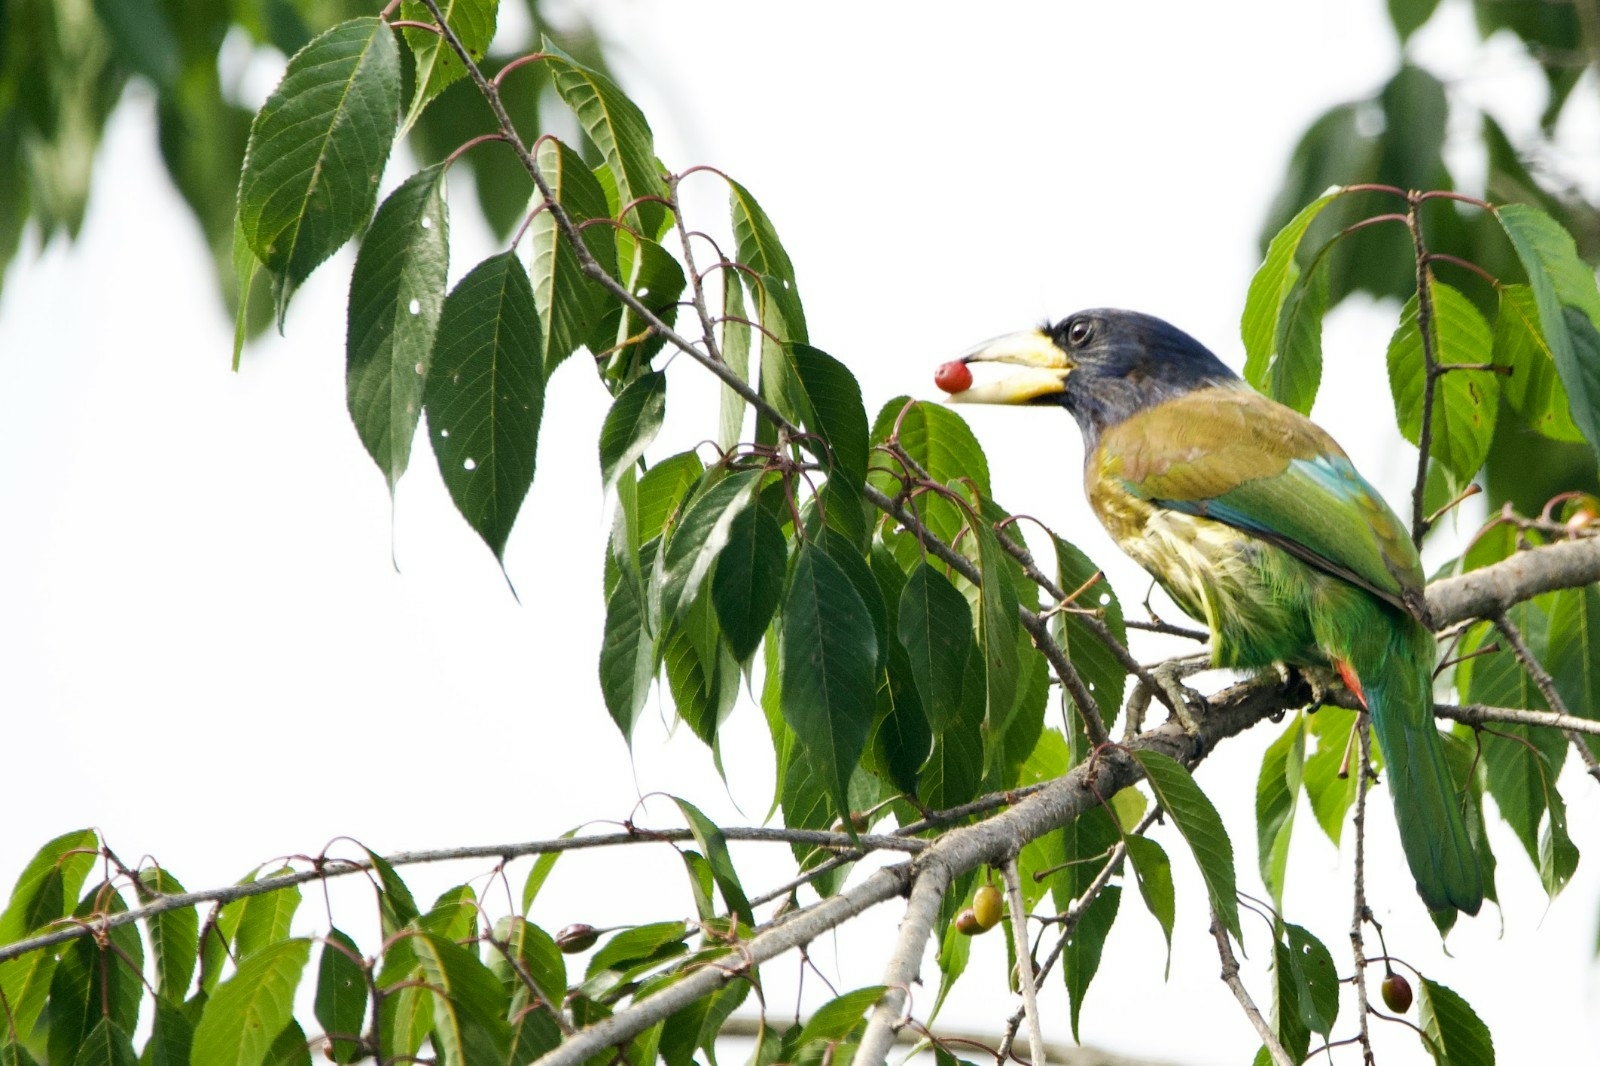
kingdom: Animalia
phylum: Chordata
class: Aves
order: Piciformes
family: Megalaimidae
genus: Psilopogon
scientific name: Psilopogon virens
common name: Great barbet
